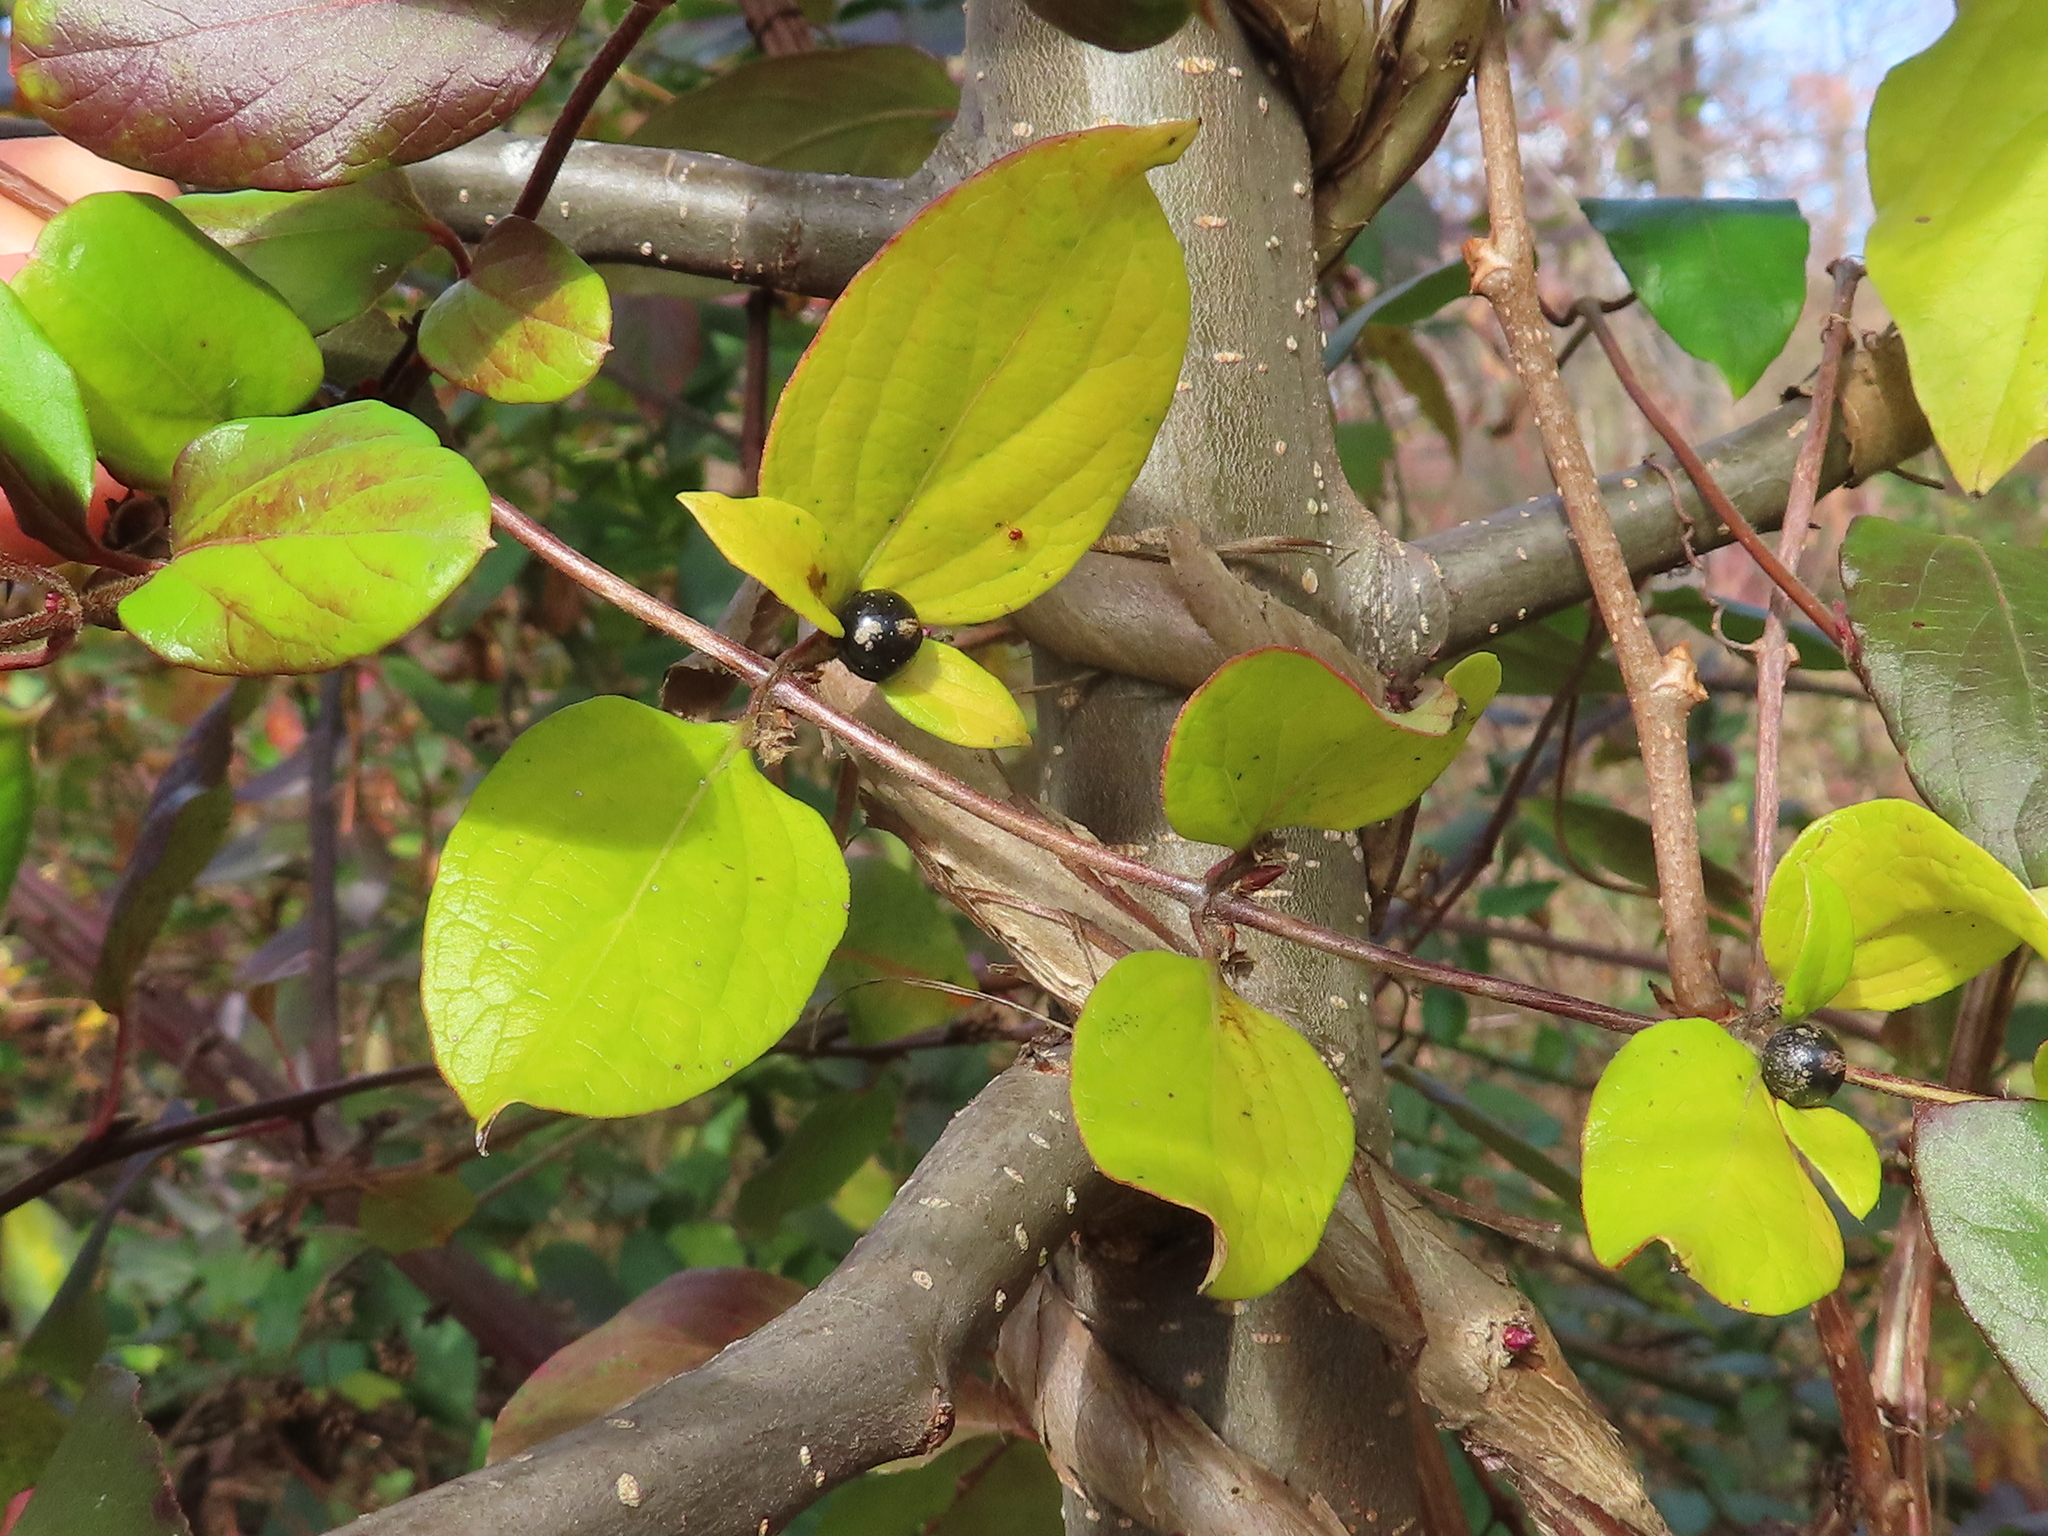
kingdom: Plantae
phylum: Tracheophyta
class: Magnoliopsida
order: Dipsacales
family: Caprifoliaceae
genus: Lonicera
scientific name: Lonicera japonica
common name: Japanese honeysuckle
